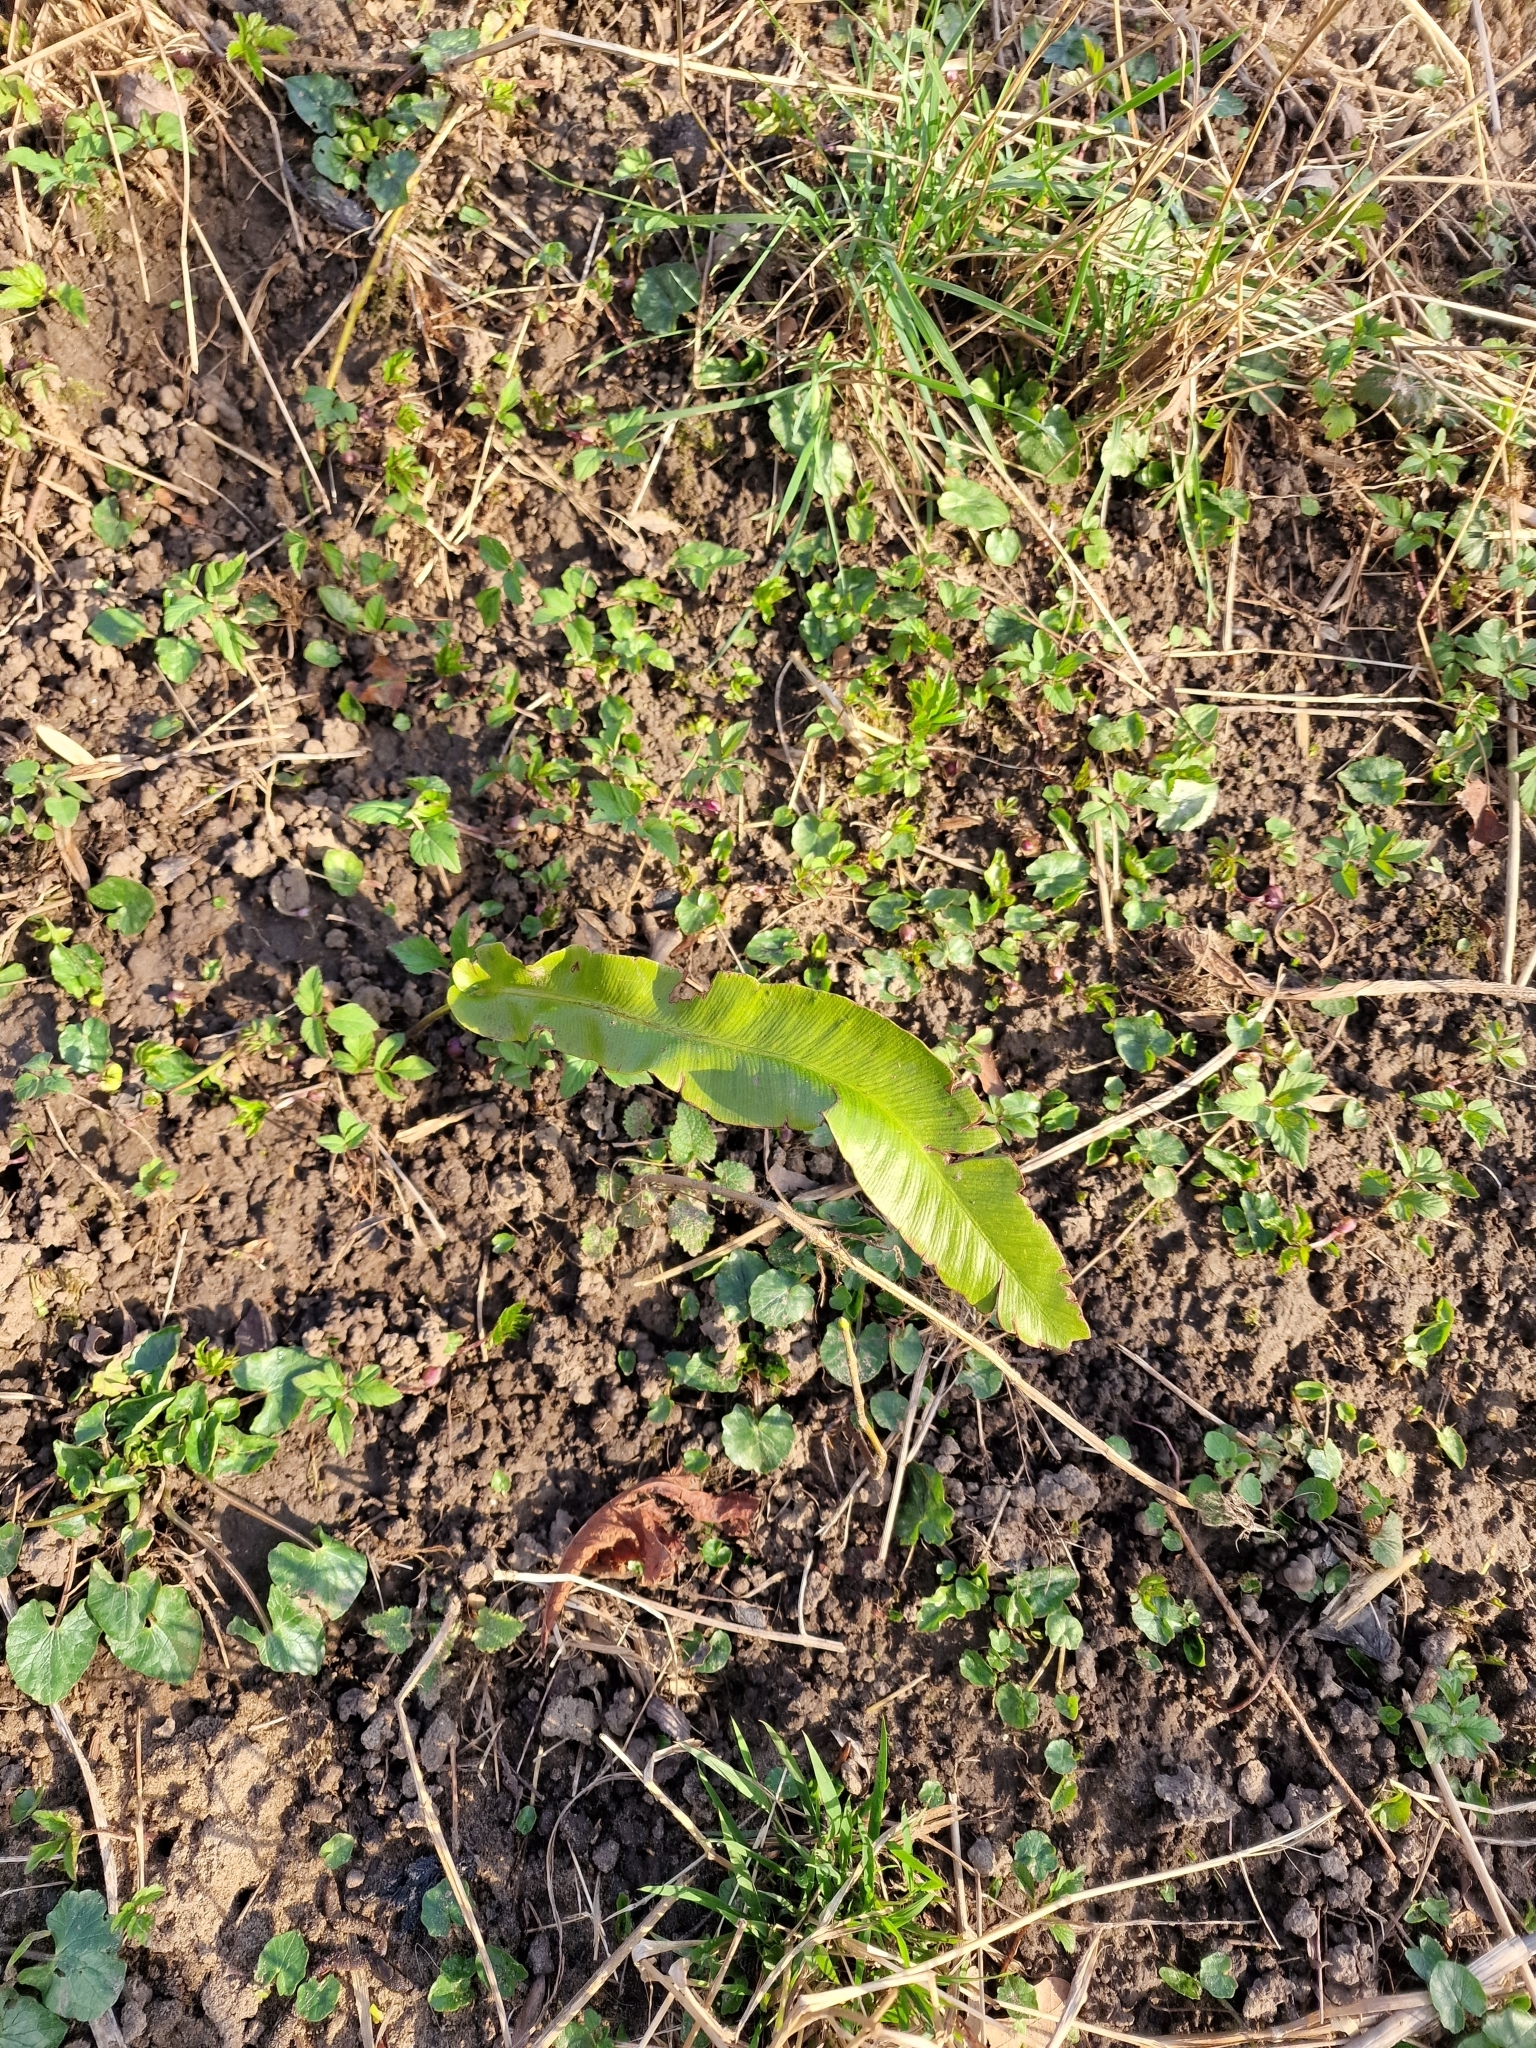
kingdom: Plantae
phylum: Tracheophyta
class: Polypodiopsida
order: Polypodiales
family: Aspleniaceae
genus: Asplenium
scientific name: Asplenium scolopendrium
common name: Hart's-tongue fern
